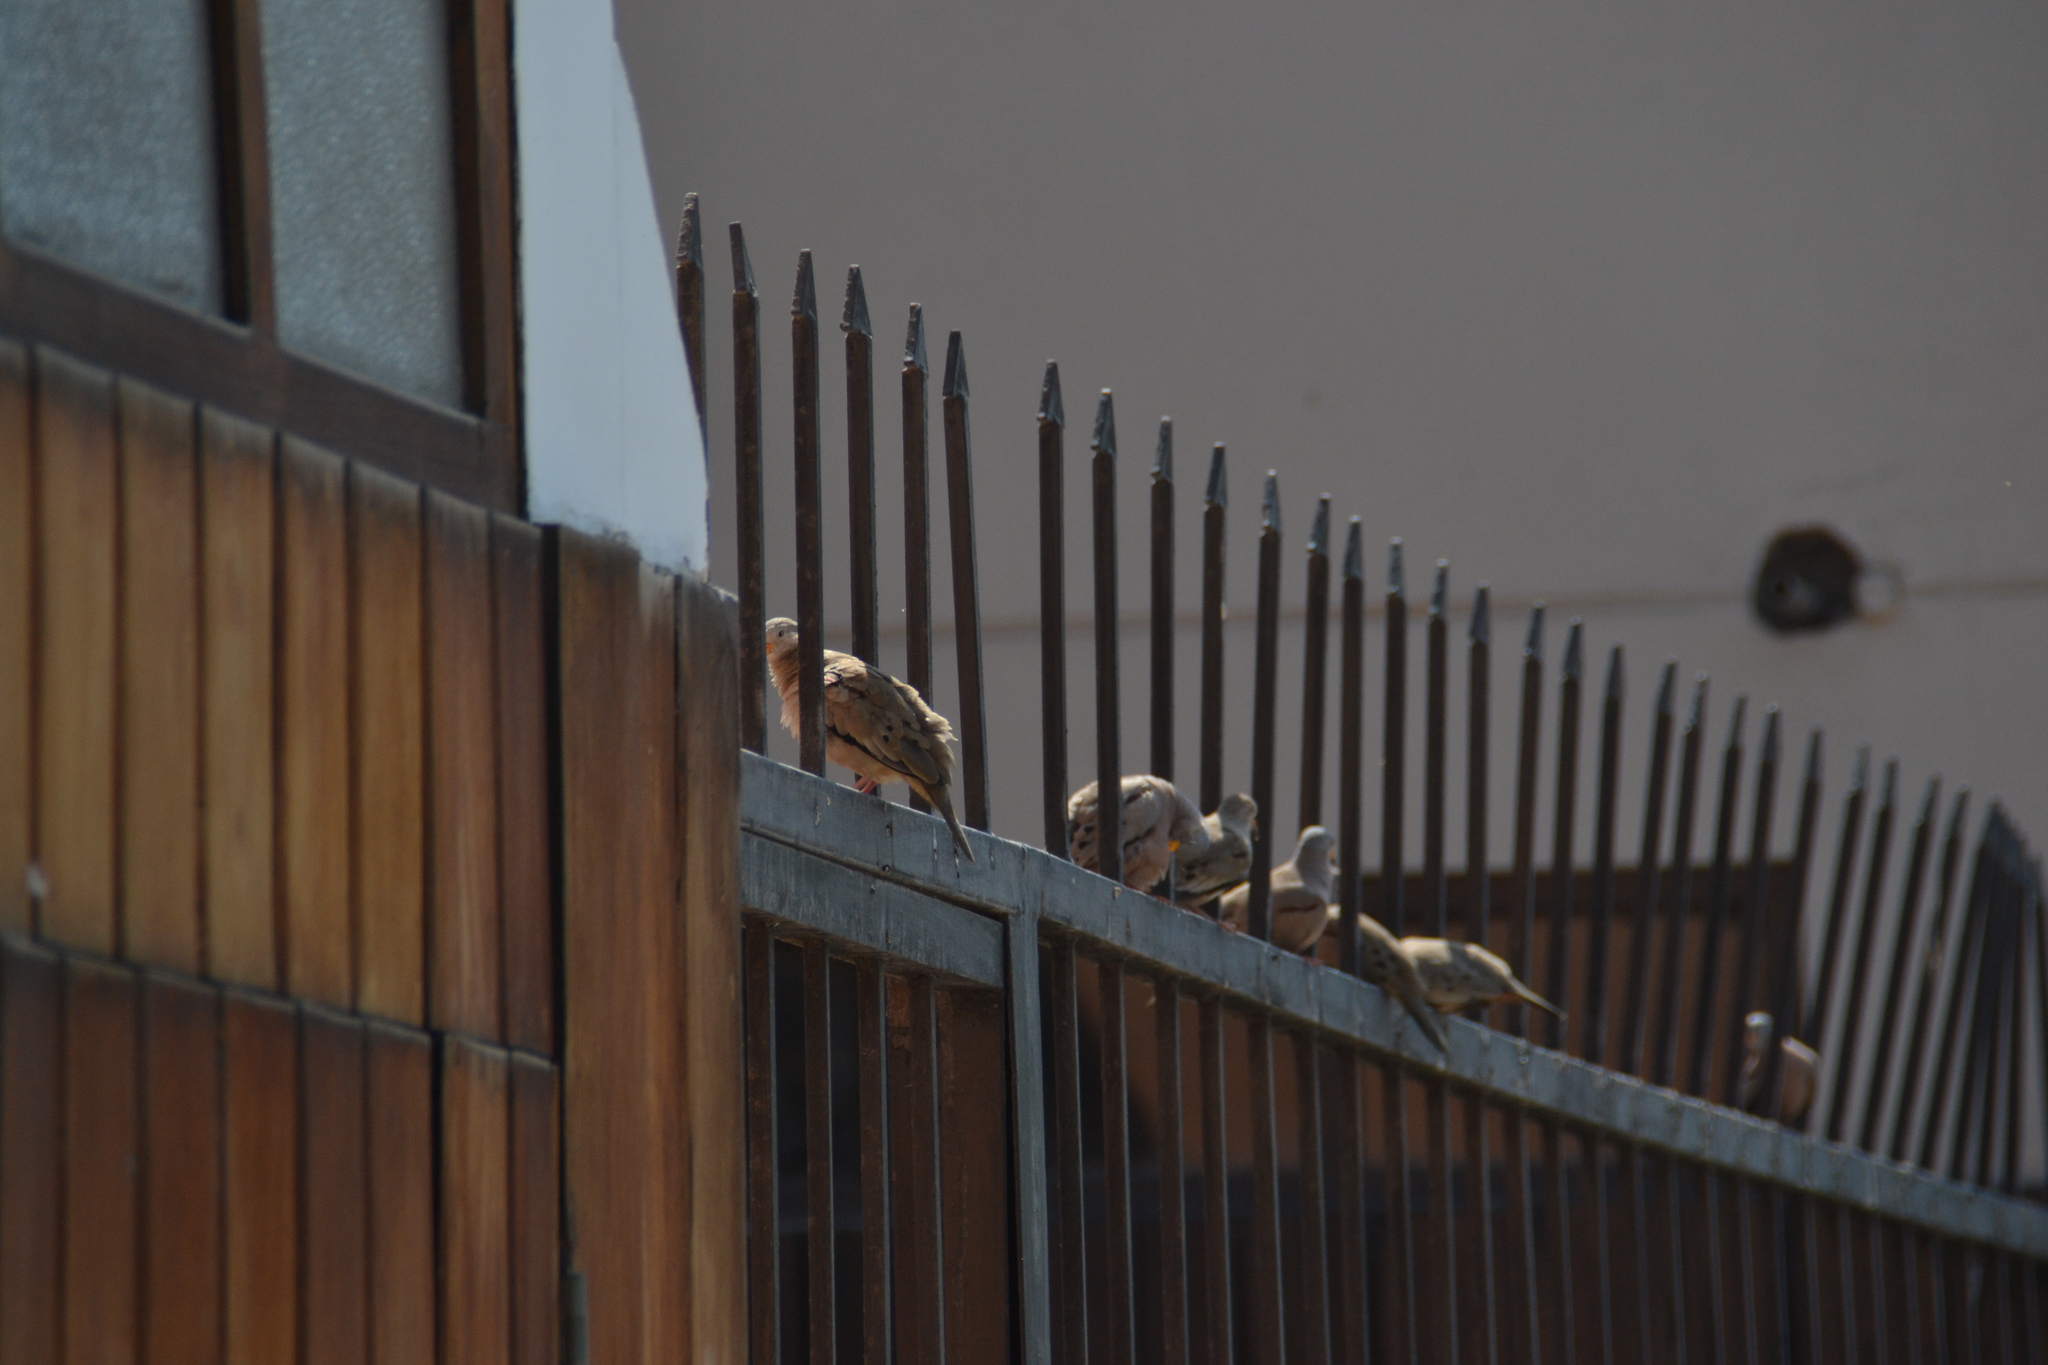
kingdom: Animalia
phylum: Chordata
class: Aves
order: Columbiformes
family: Columbidae
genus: Zenaida
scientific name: Zenaida auriculata
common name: Eared dove
